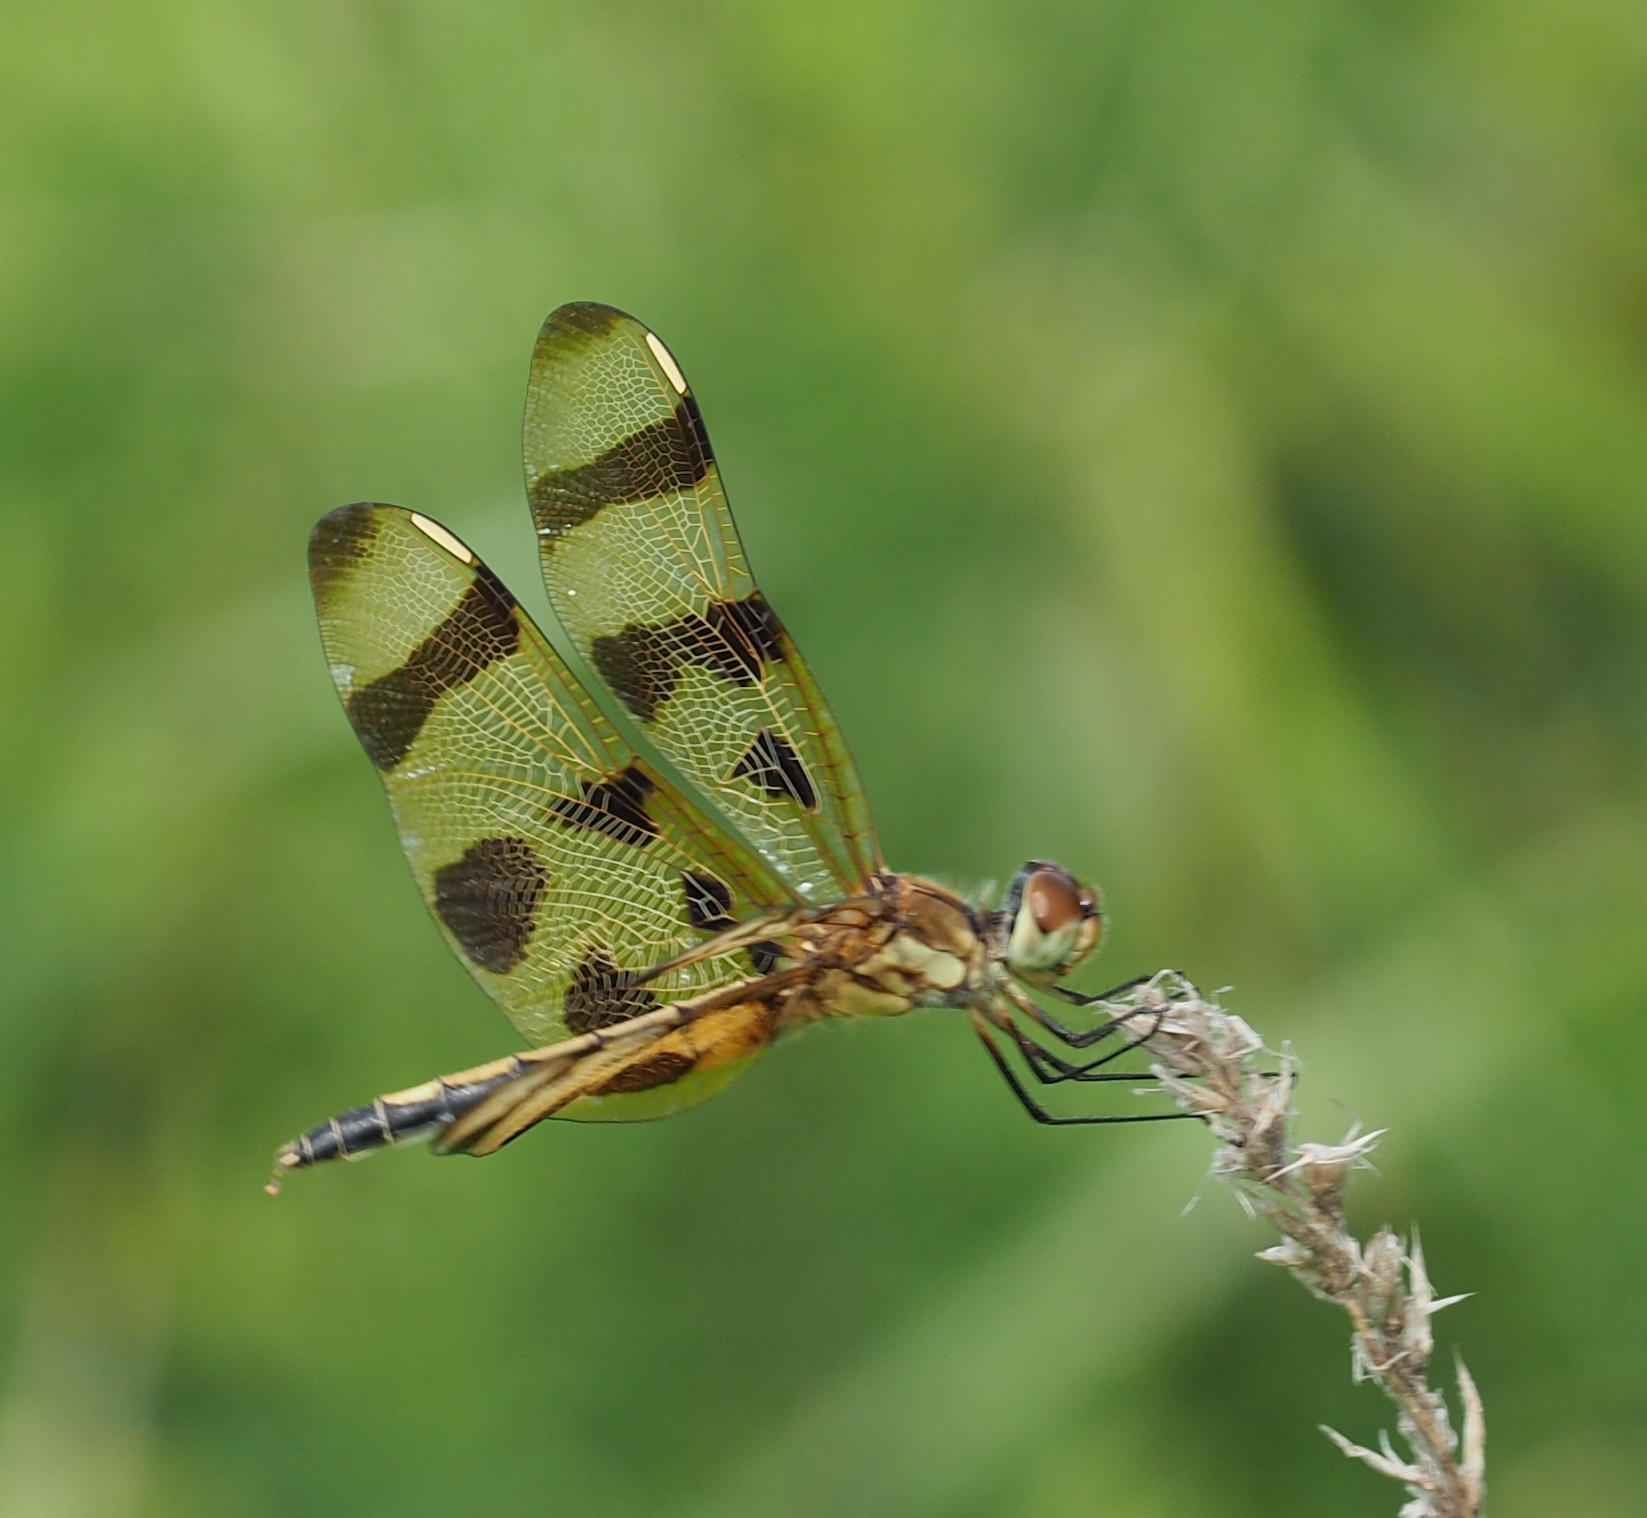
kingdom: Animalia
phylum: Arthropoda
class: Insecta
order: Odonata
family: Libellulidae
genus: Celithemis
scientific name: Celithemis eponina
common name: Halloween pennant
